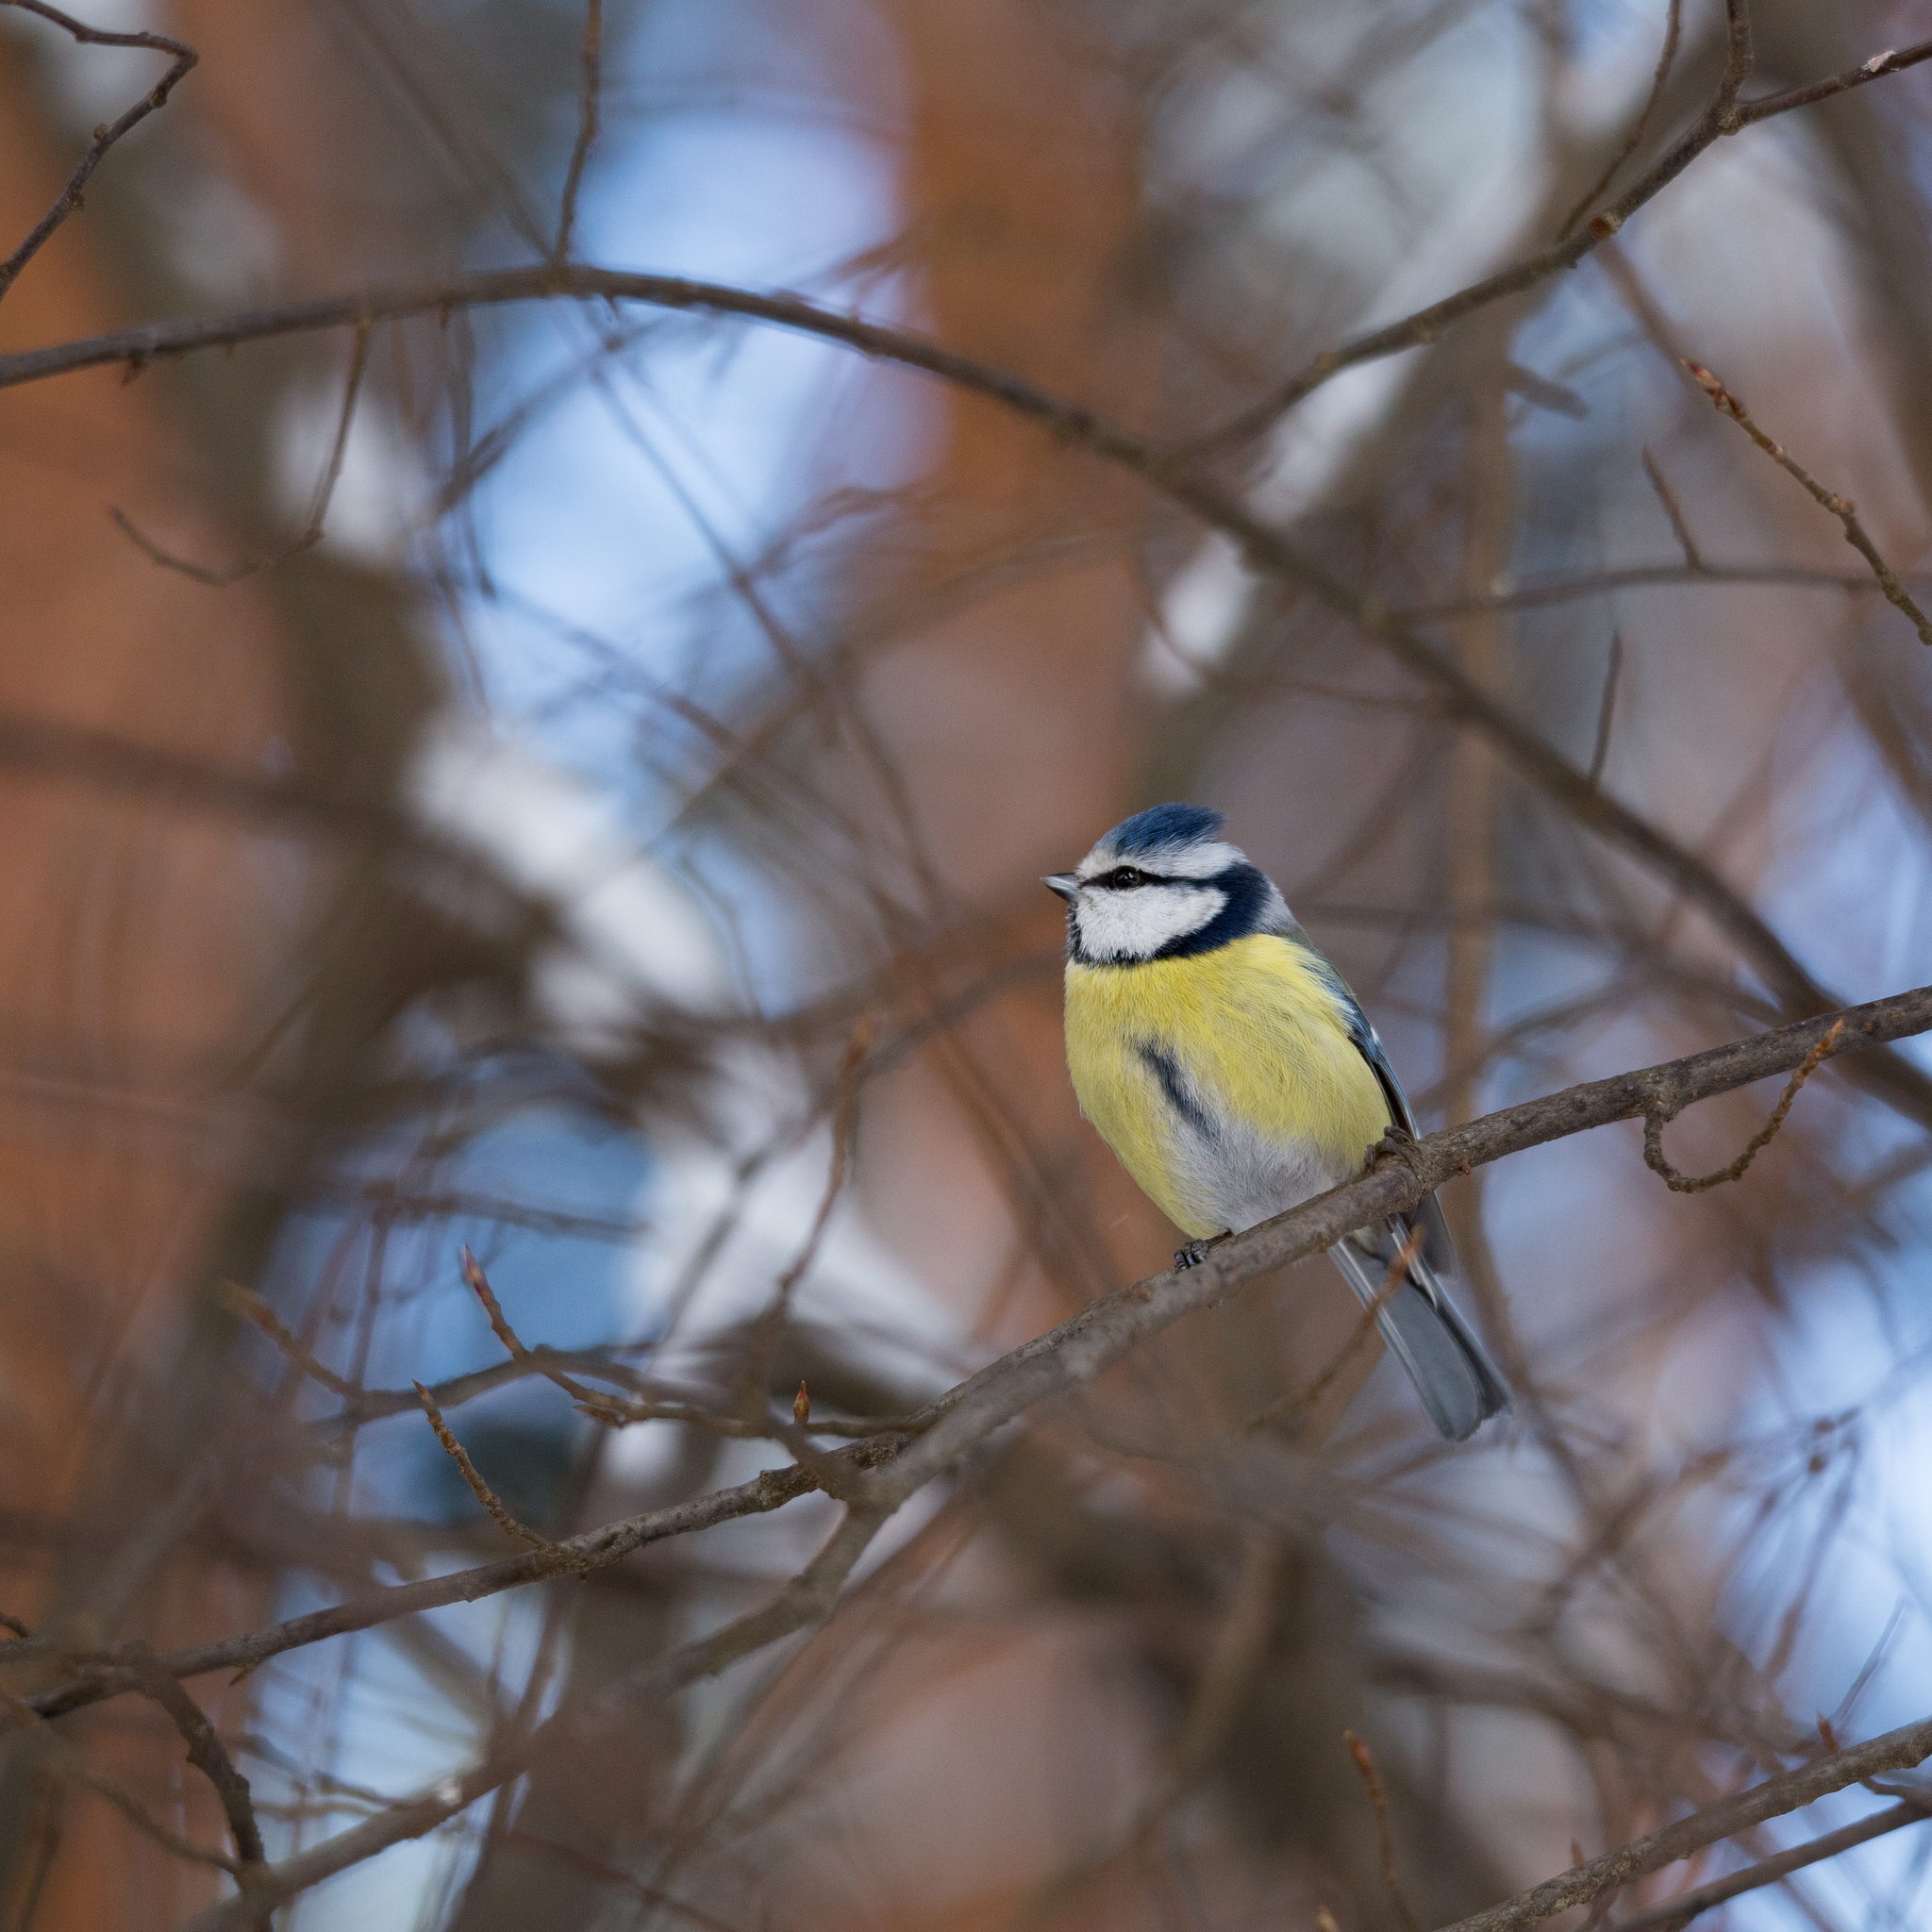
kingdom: Animalia
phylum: Chordata
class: Aves
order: Passeriformes
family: Paridae
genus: Cyanistes
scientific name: Cyanistes caeruleus
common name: Eurasian blue tit
